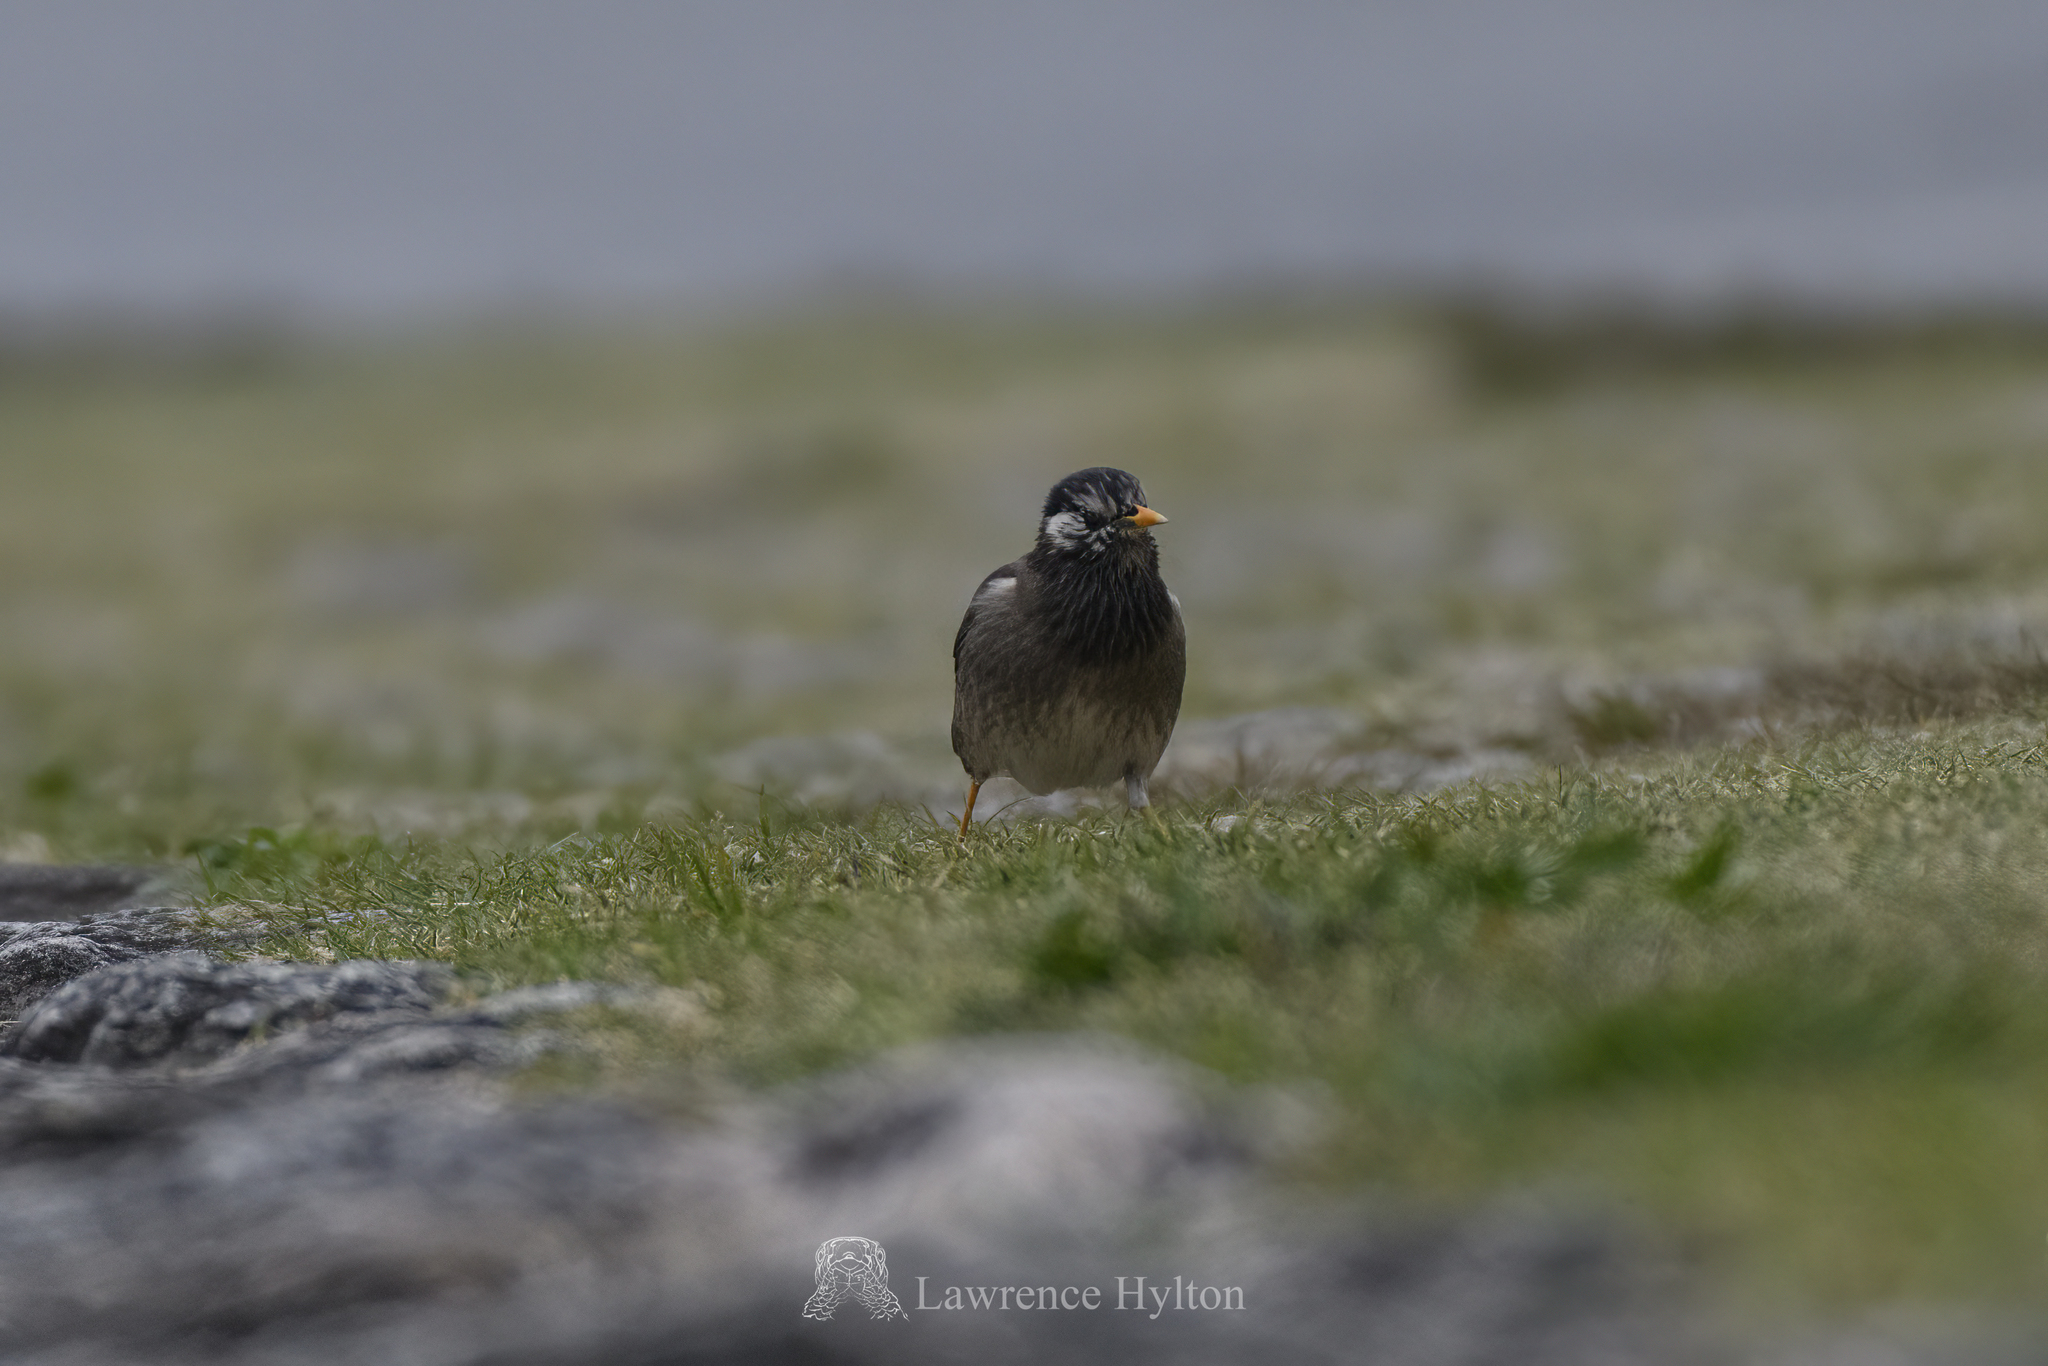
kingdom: Animalia
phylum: Chordata
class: Aves
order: Passeriformes
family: Sturnidae
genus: Spodiopsar
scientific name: Spodiopsar cineraceus
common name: White-cheeked starling
